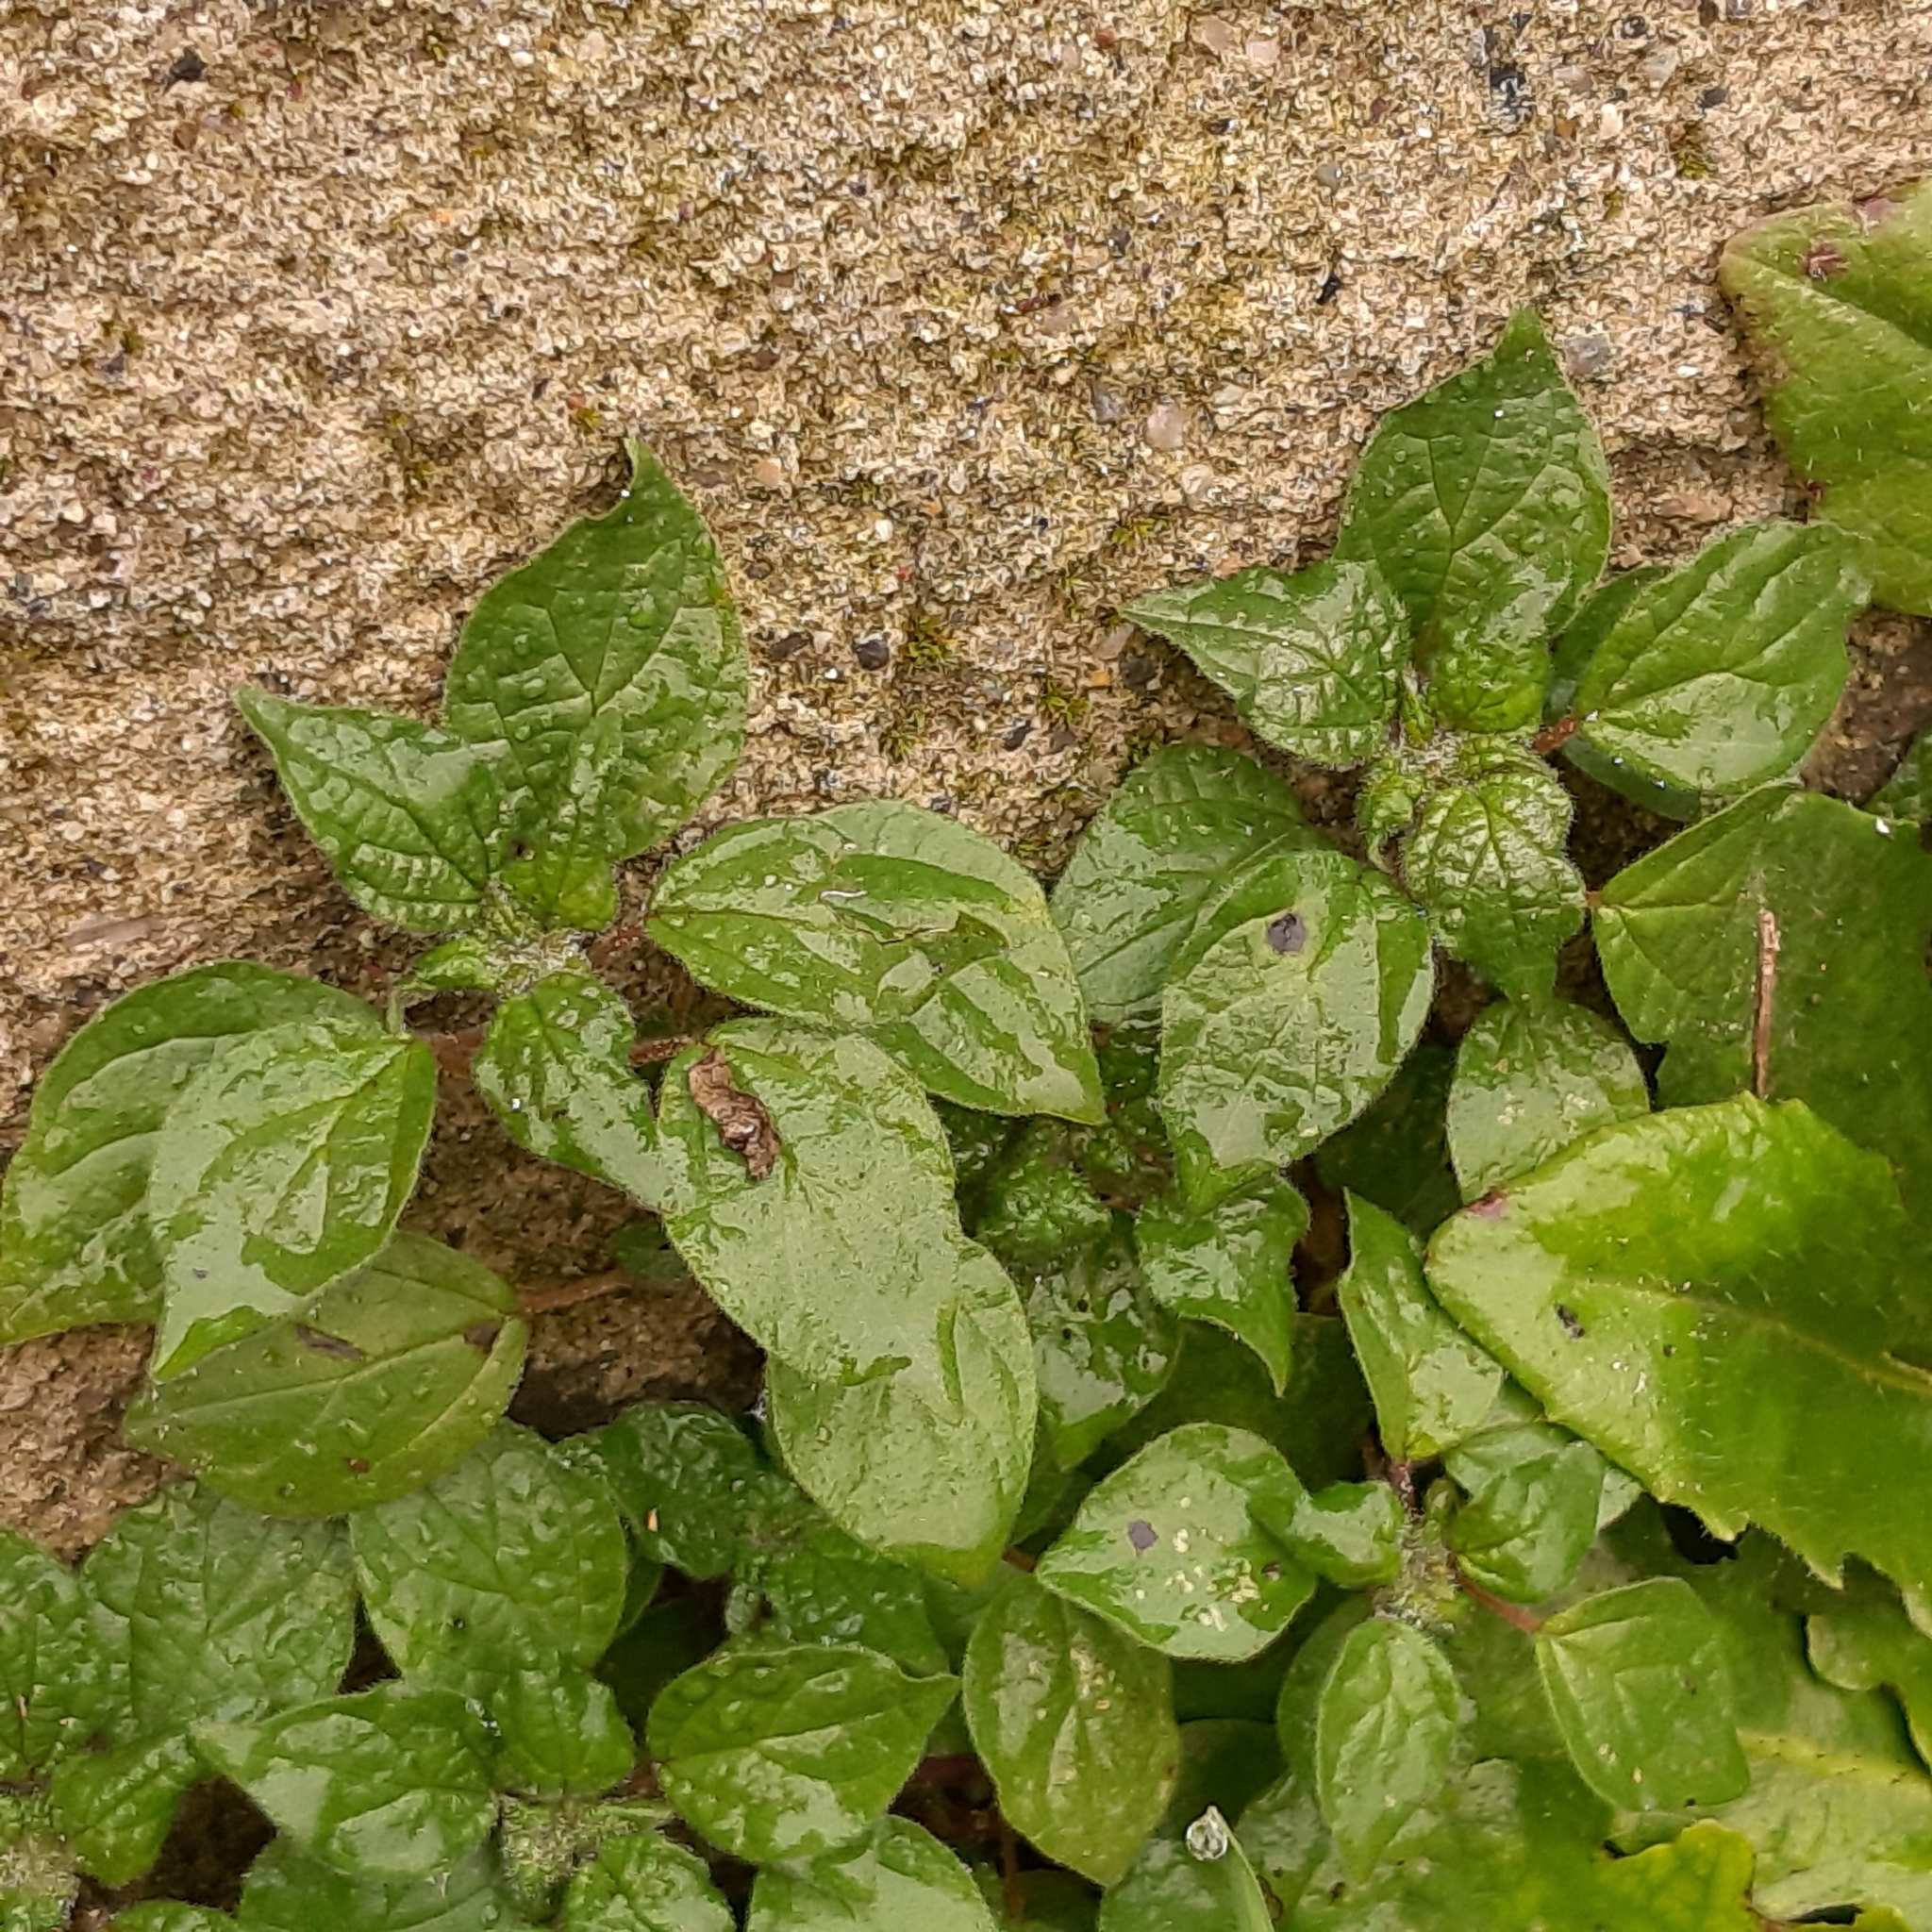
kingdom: Plantae
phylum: Tracheophyta
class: Magnoliopsida
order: Rosales
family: Urticaceae
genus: Parietaria
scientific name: Parietaria judaica
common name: Pellitory-of-the-wall
